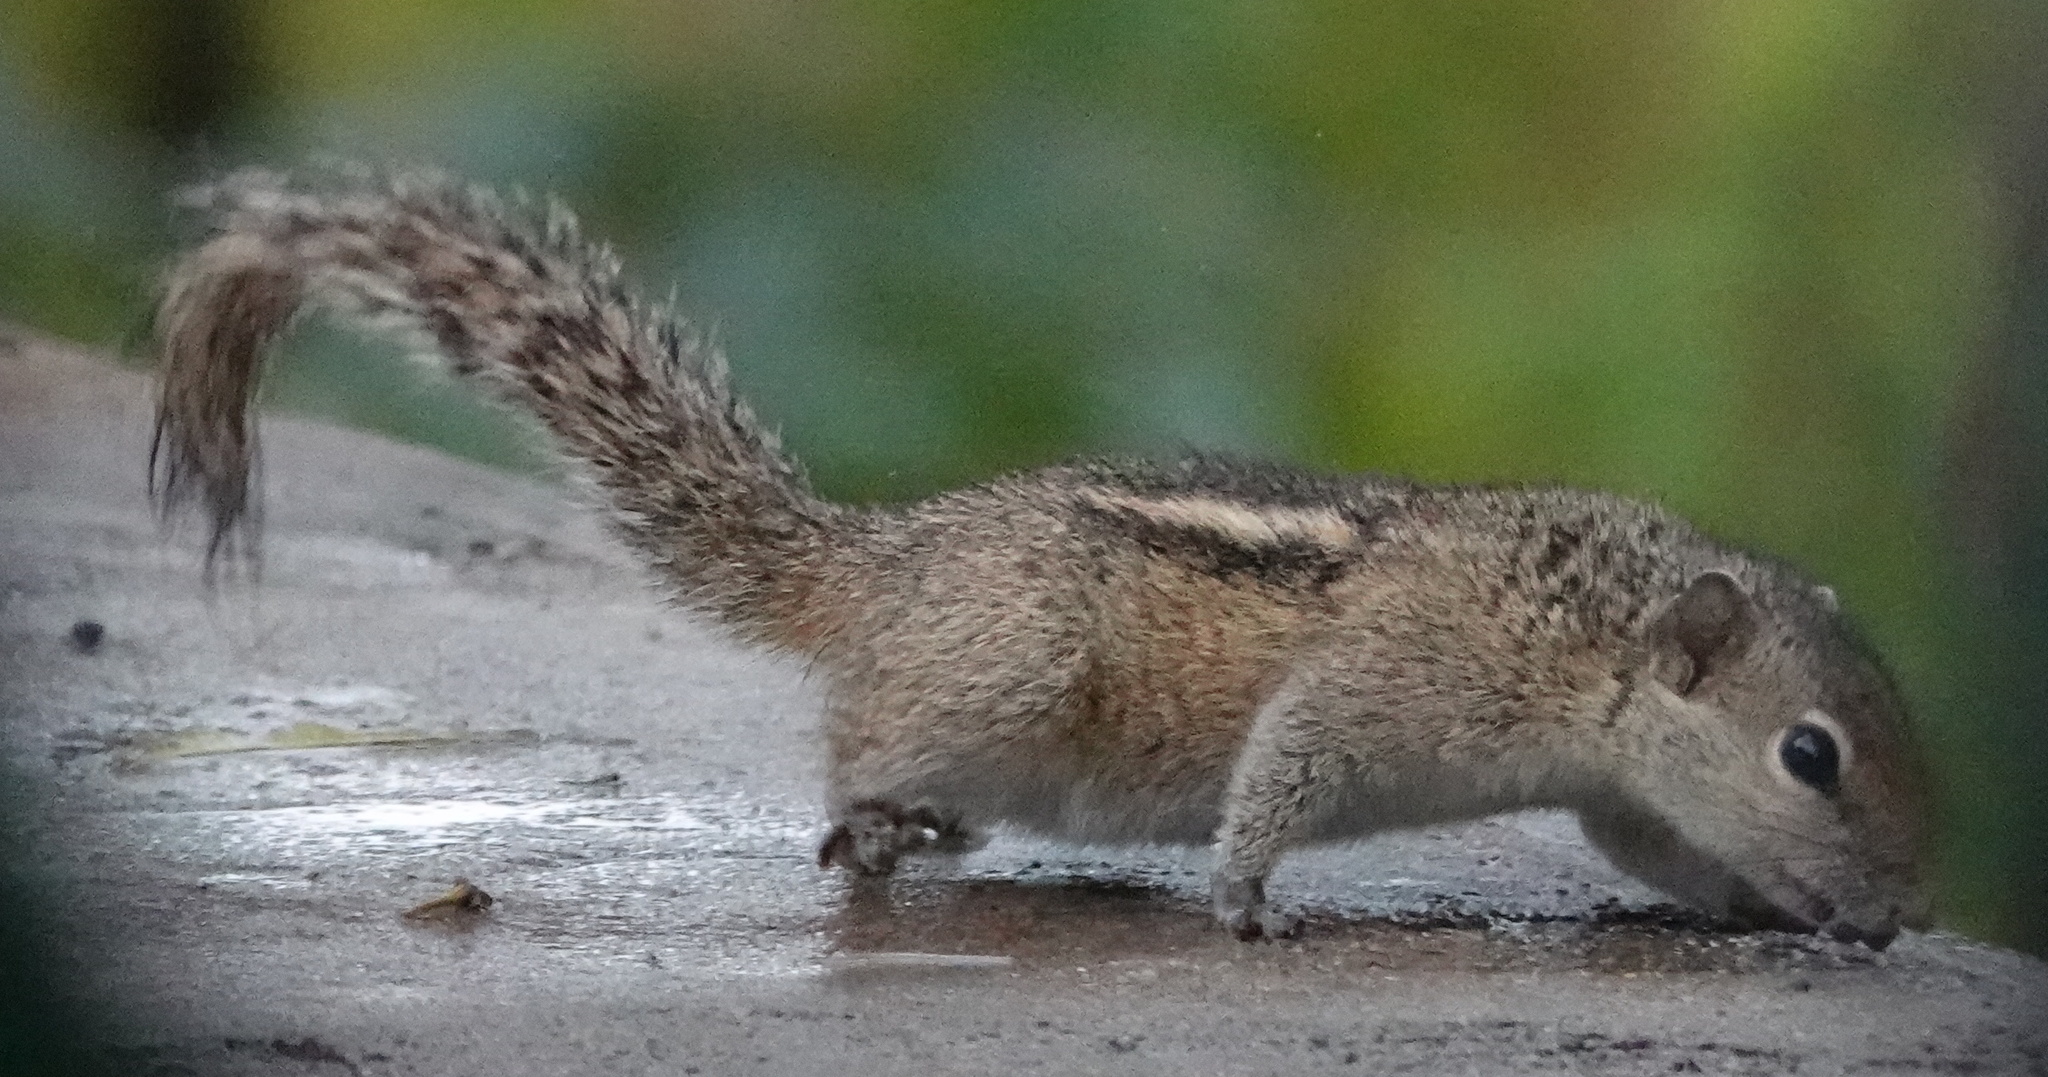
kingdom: Animalia
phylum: Chordata
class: Mammalia
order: Rodentia
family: Sciuridae
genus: Funambulus
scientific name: Funambulus palmarum
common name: Indian palm squirrel
